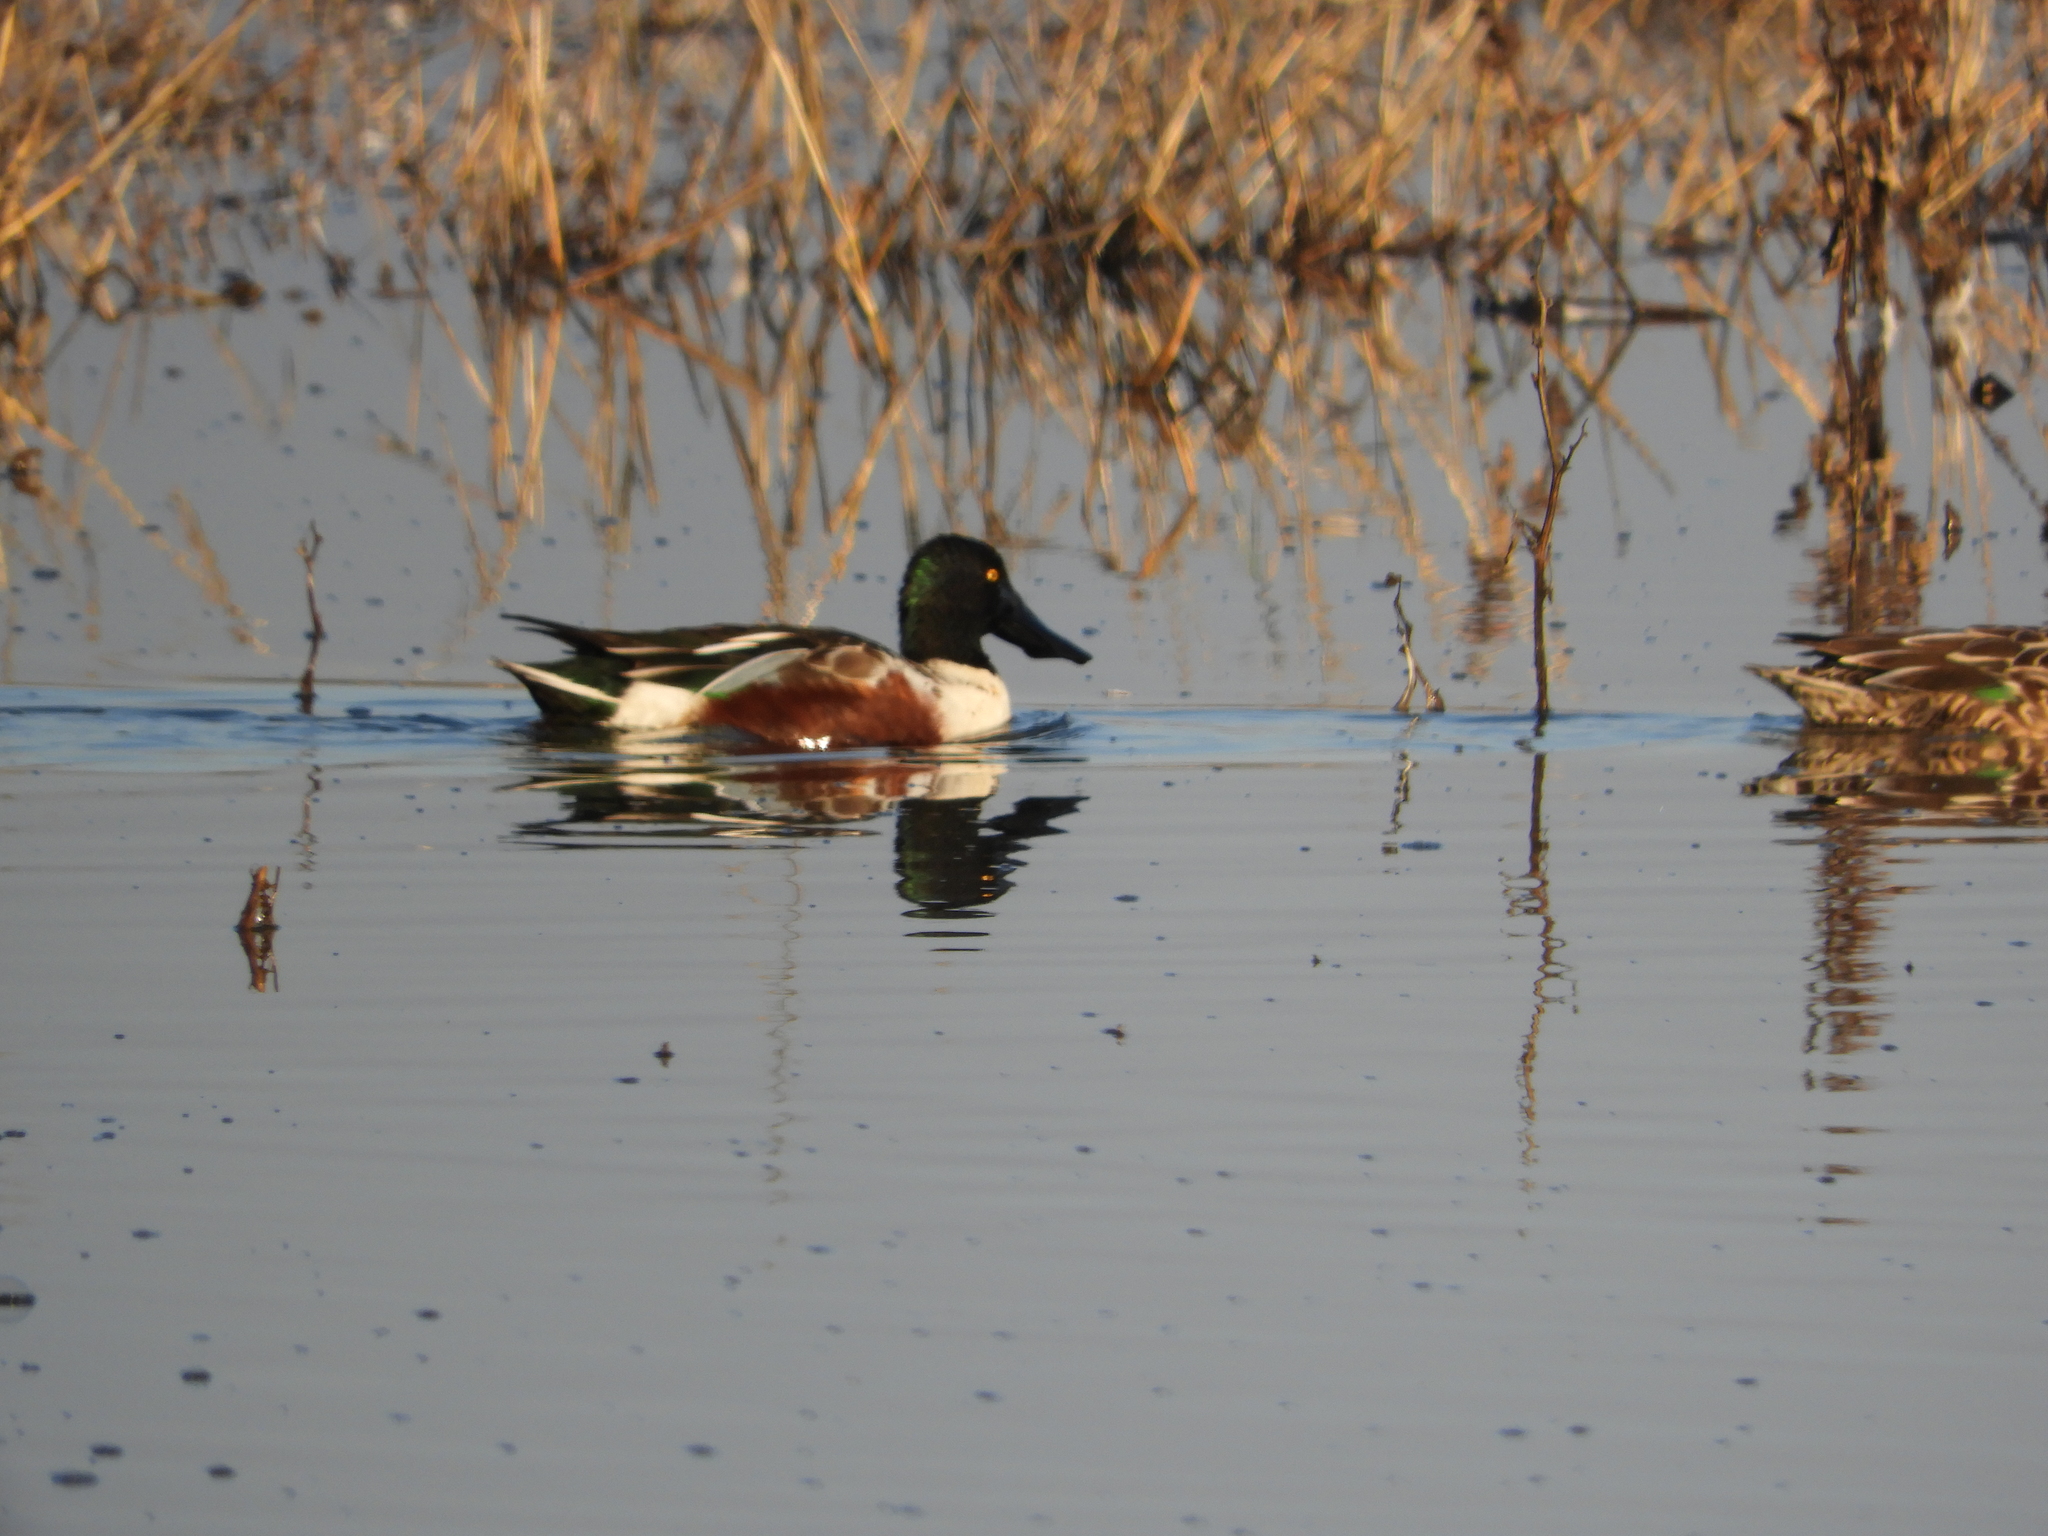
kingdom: Animalia
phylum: Chordata
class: Aves
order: Anseriformes
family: Anatidae
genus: Spatula
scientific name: Spatula clypeata
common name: Northern shoveler
